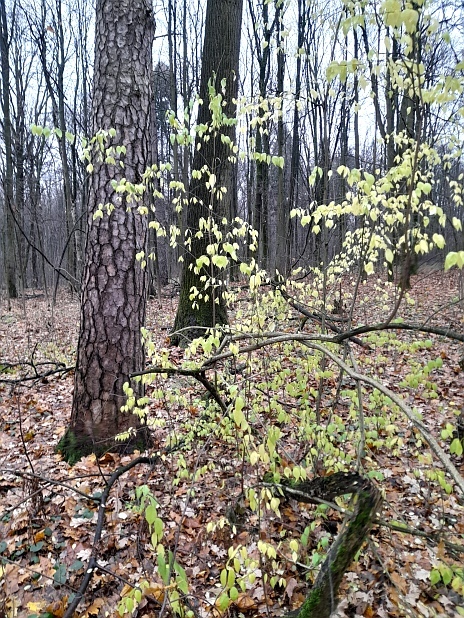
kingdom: Plantae
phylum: Tracheophyta
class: Magnoliopsida
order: Celastrales
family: Celastraceae
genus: Euonymus
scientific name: Euonymus verrucosus
